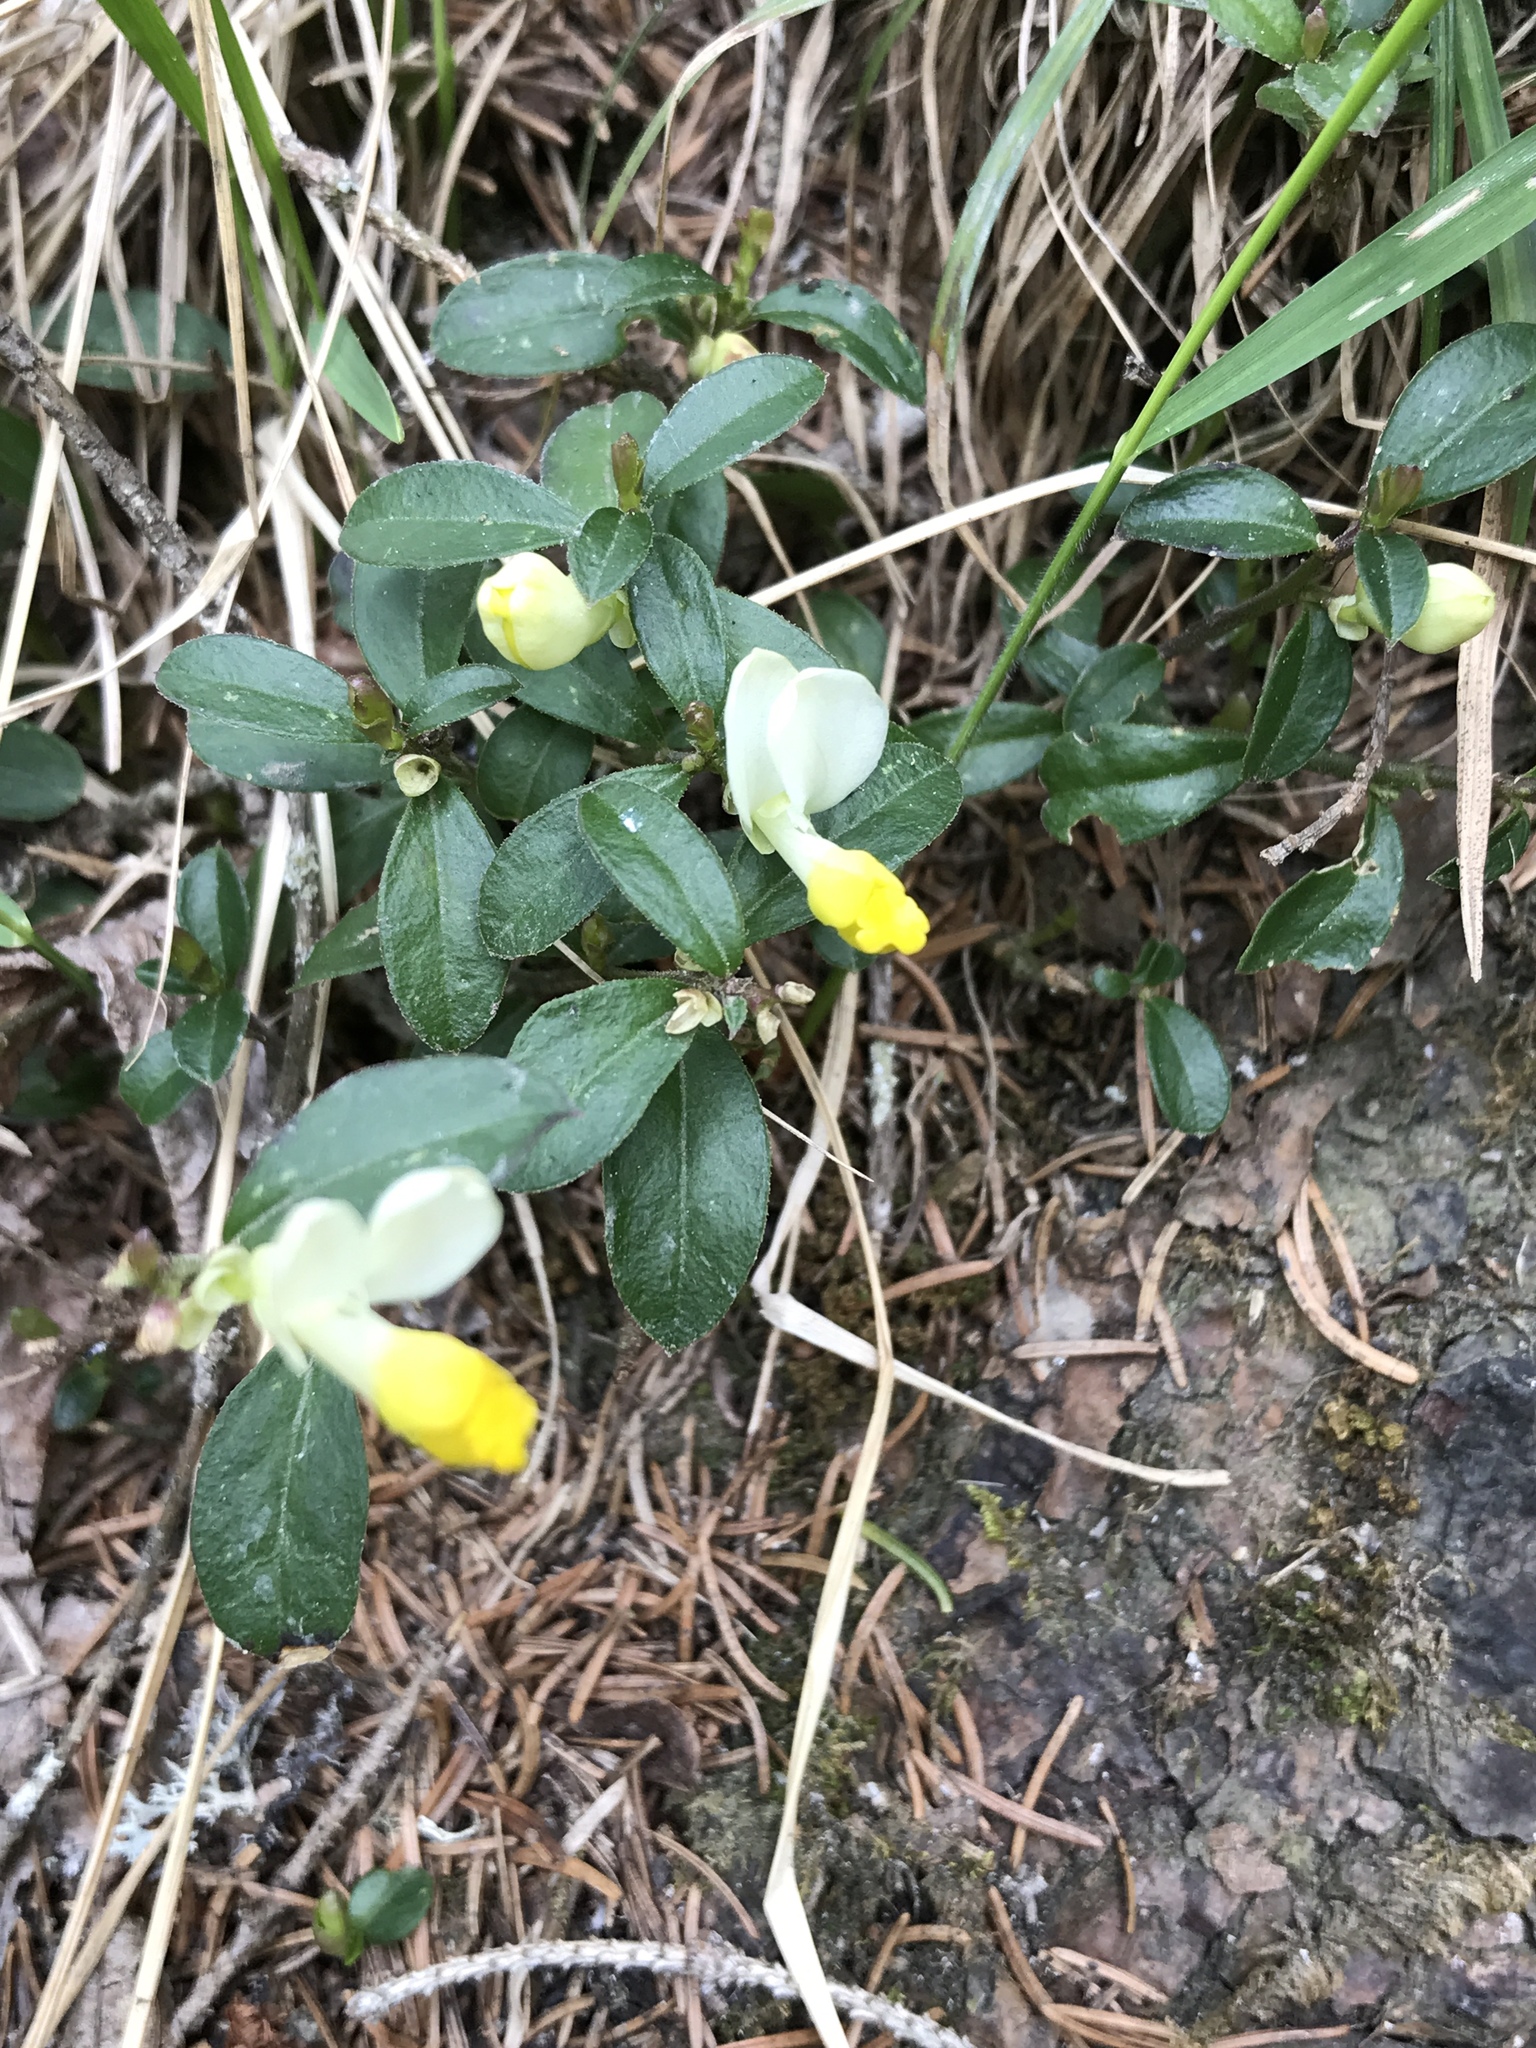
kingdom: Plantae
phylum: Tracheophyta
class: Magnoliopsida
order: Fabales
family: Polygalaceae
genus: Polygaloides
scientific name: Polygaloides chamaebuxus
